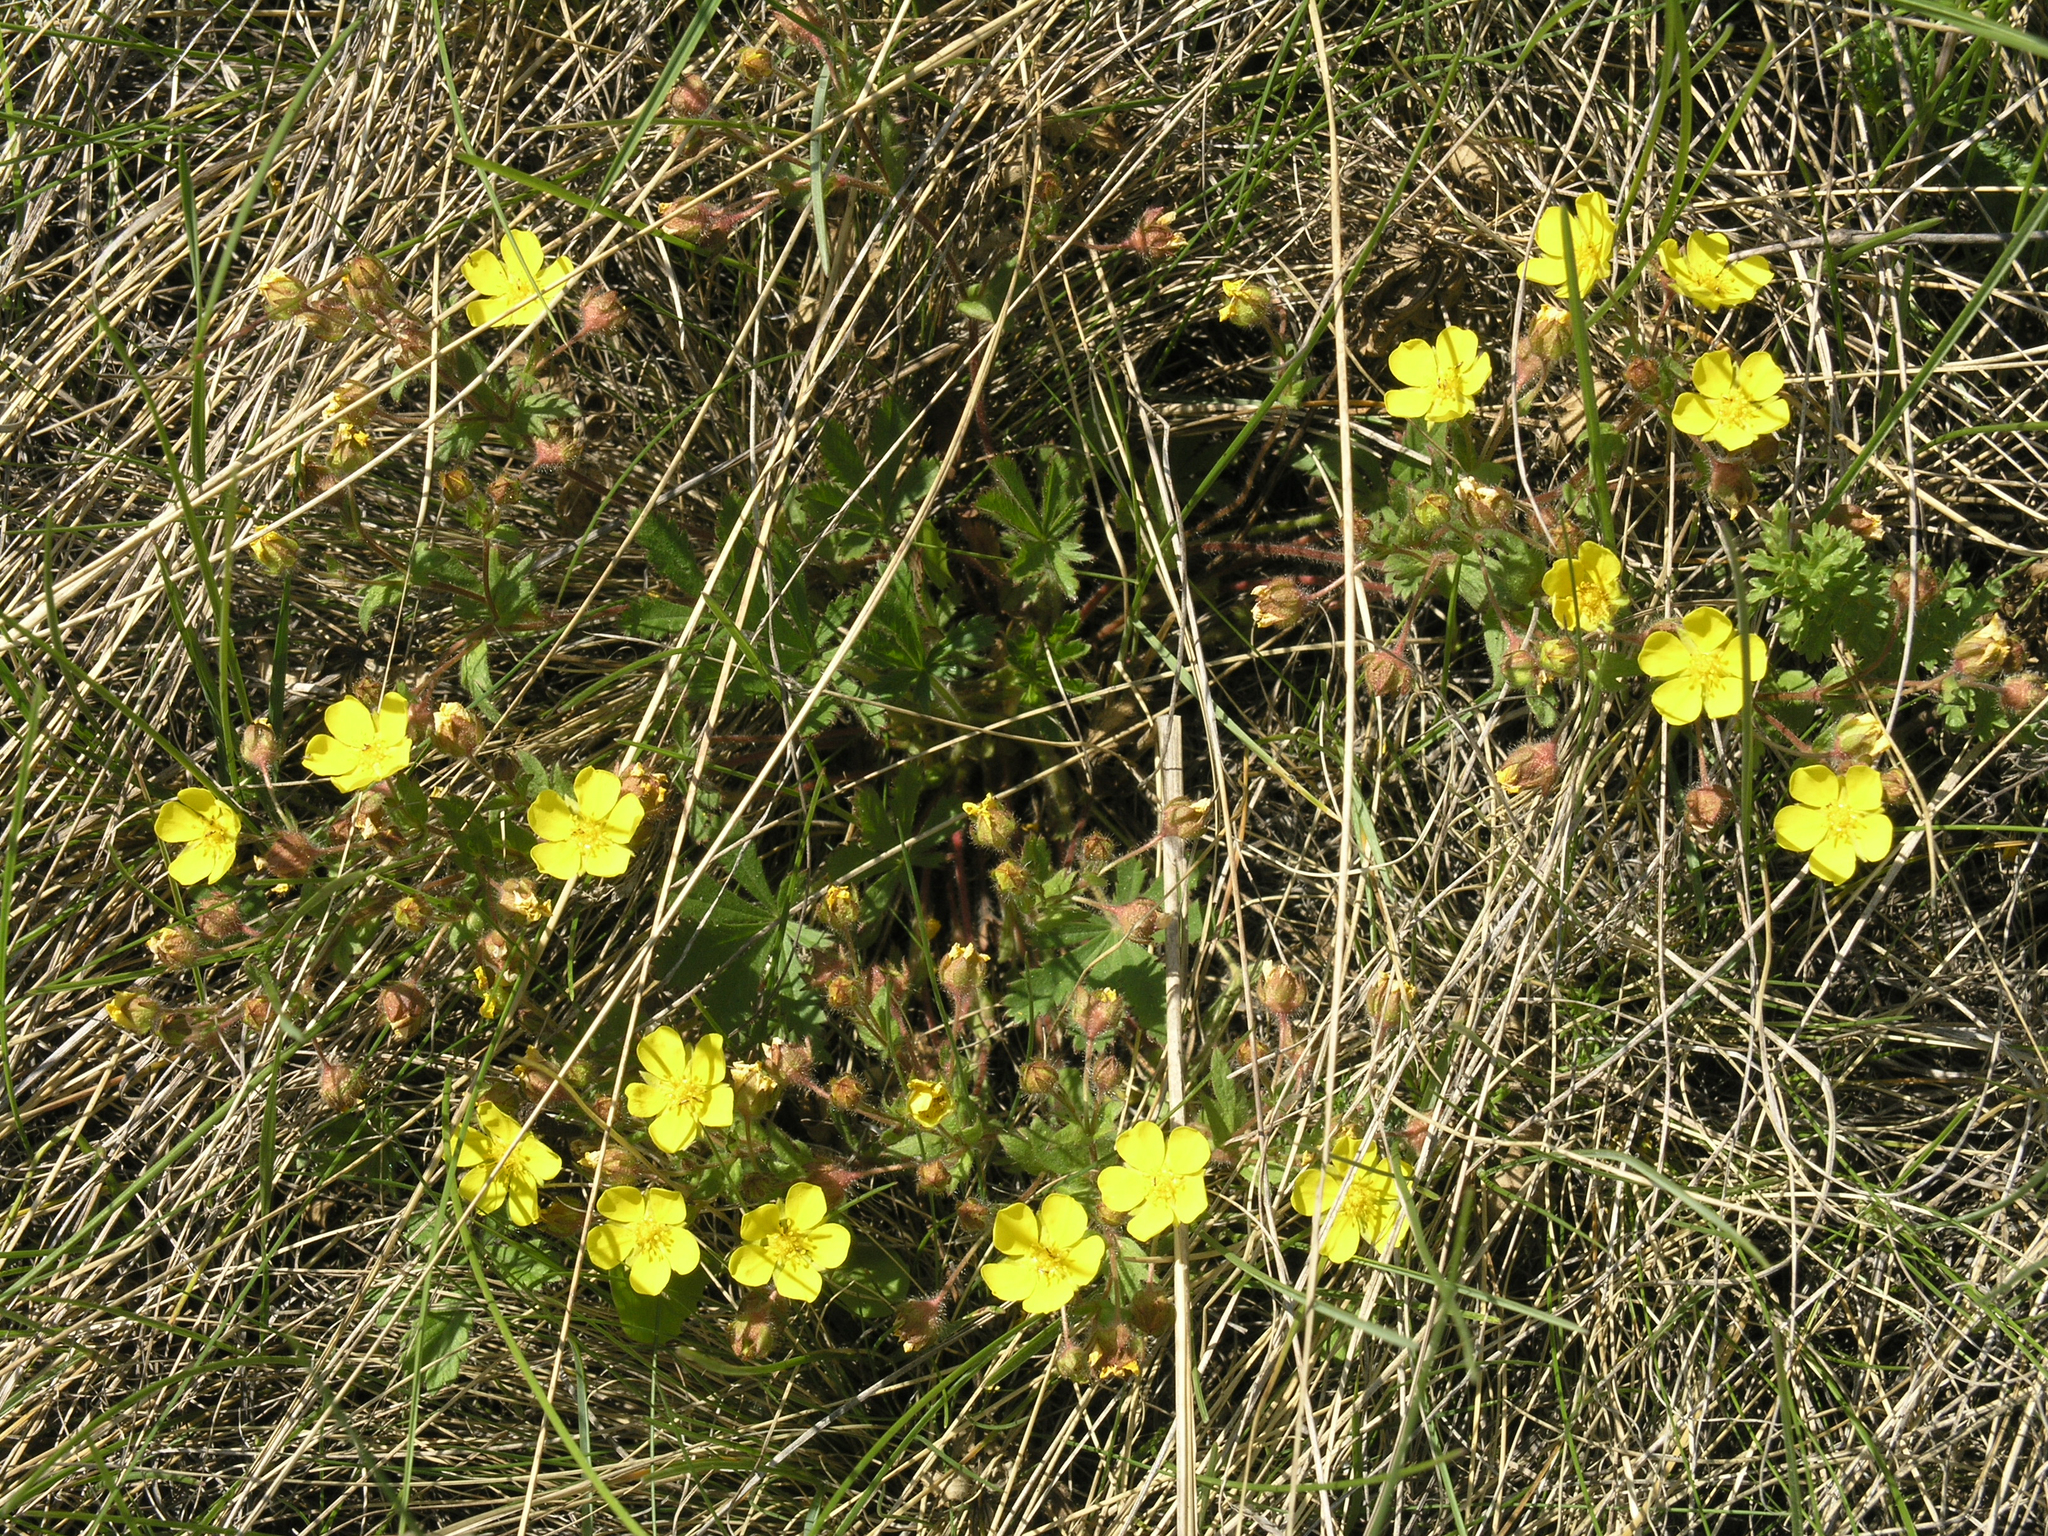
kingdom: Plantae
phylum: Tracheophyta
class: Magnoliopsida
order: Rosales
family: Rosaceae
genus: Potentilla
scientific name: Potentilla humifusa
